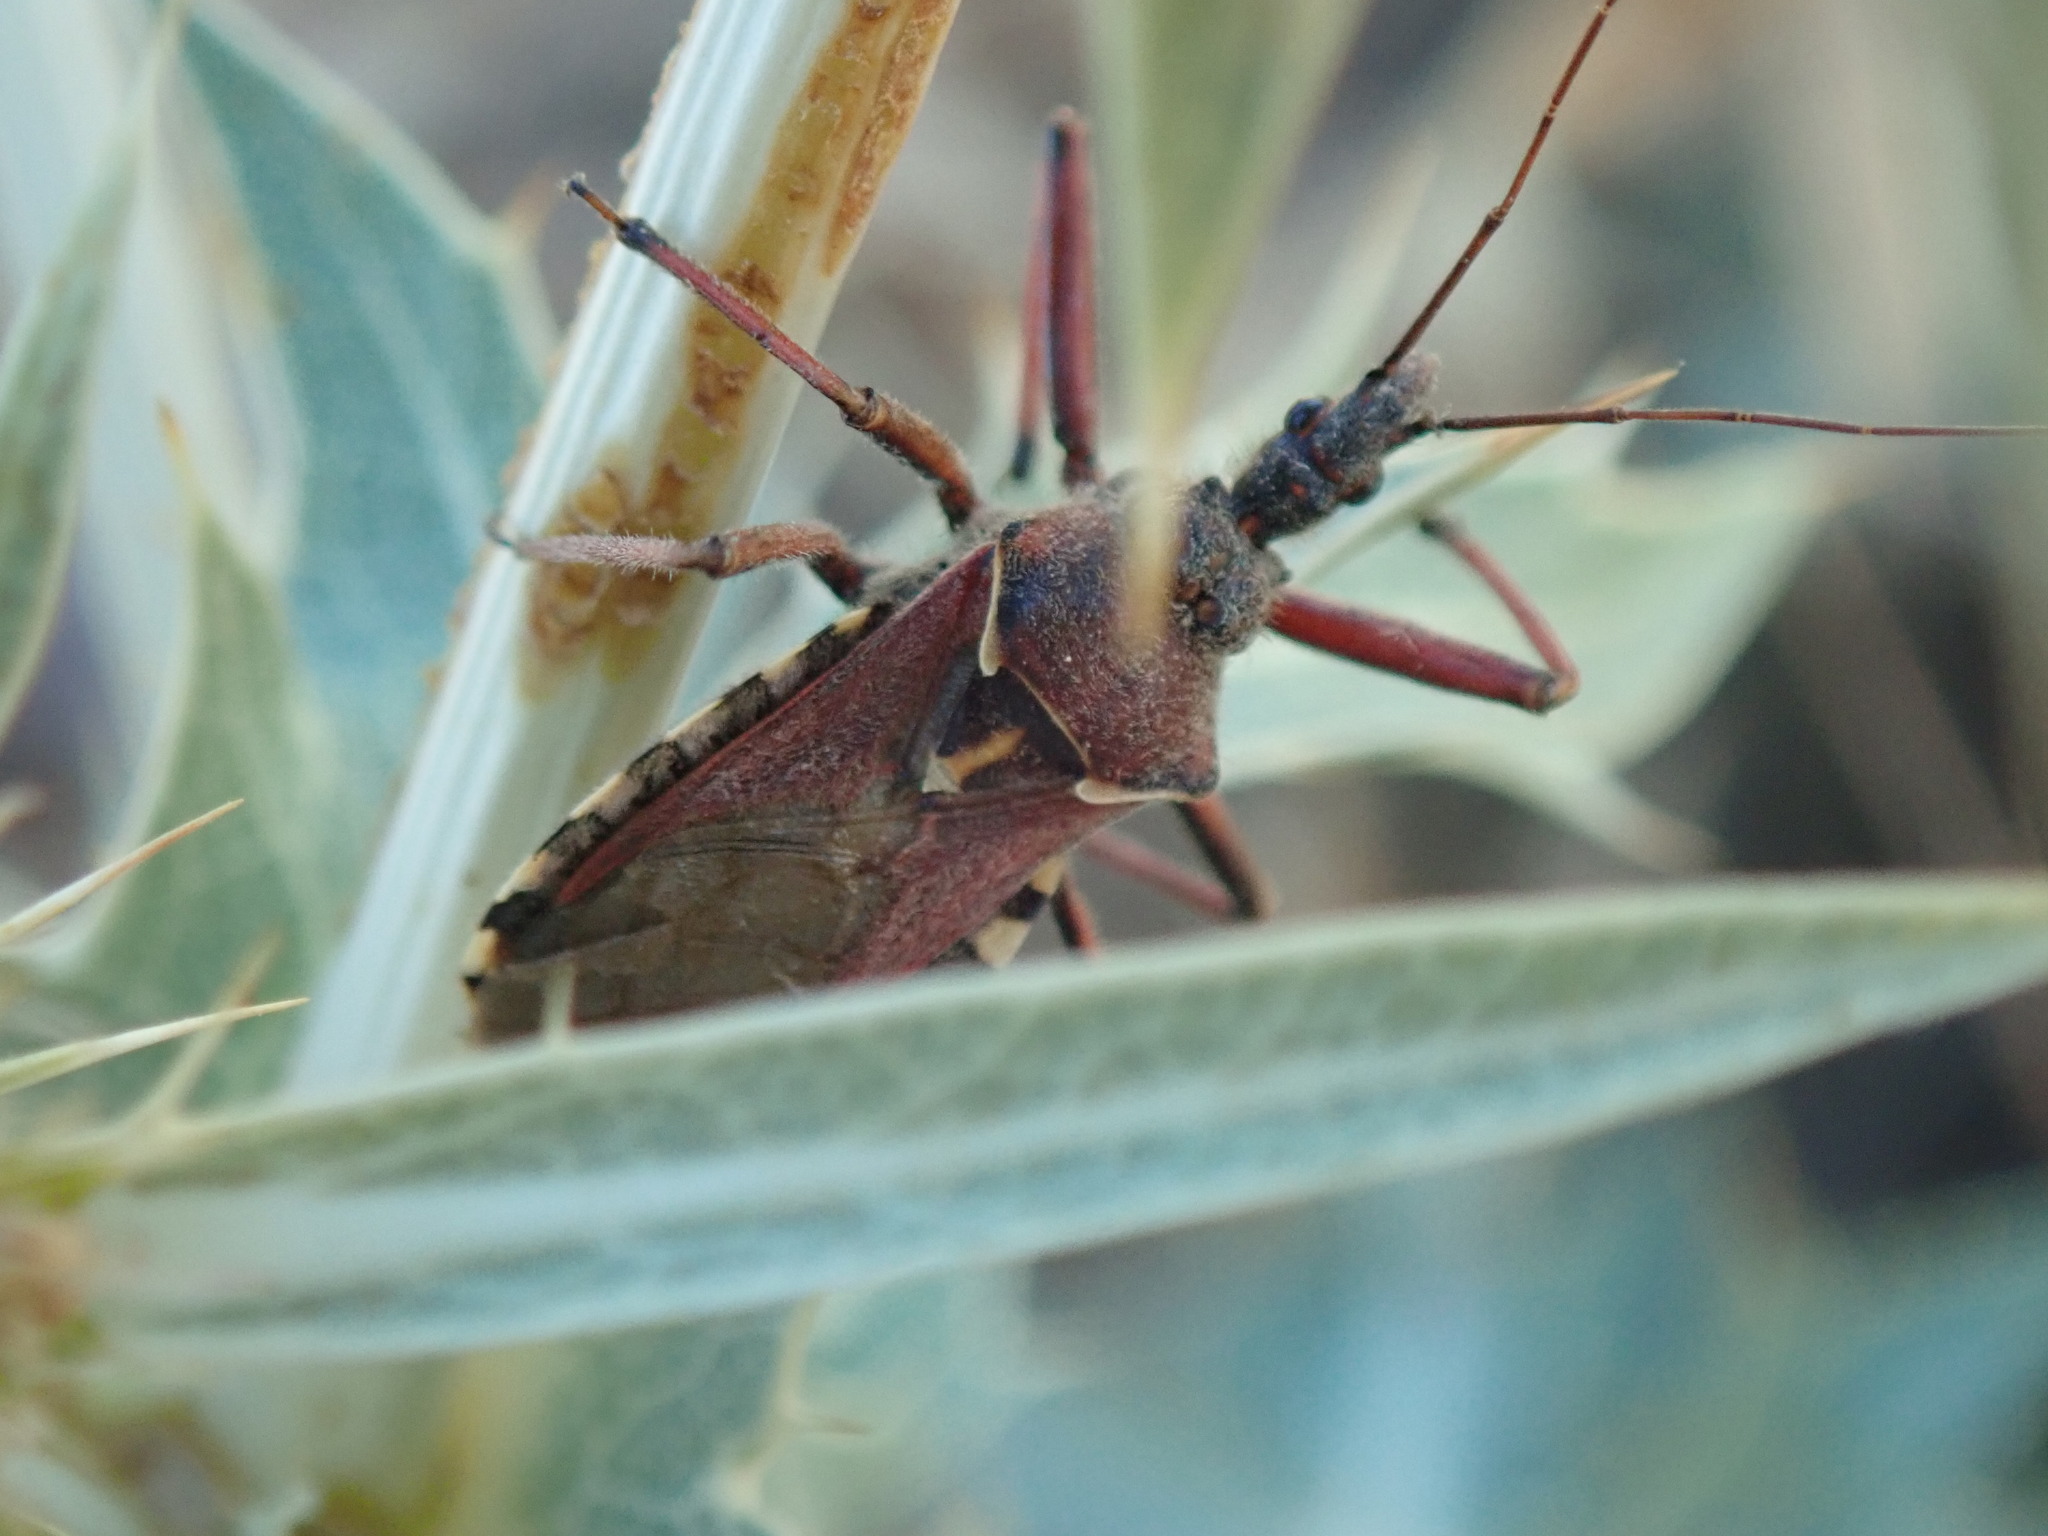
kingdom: Animalia
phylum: Arthropoda
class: Insecta
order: Hemiptera
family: Reduviidae
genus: Rhynocoris
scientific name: Rhynocoris erythropus
